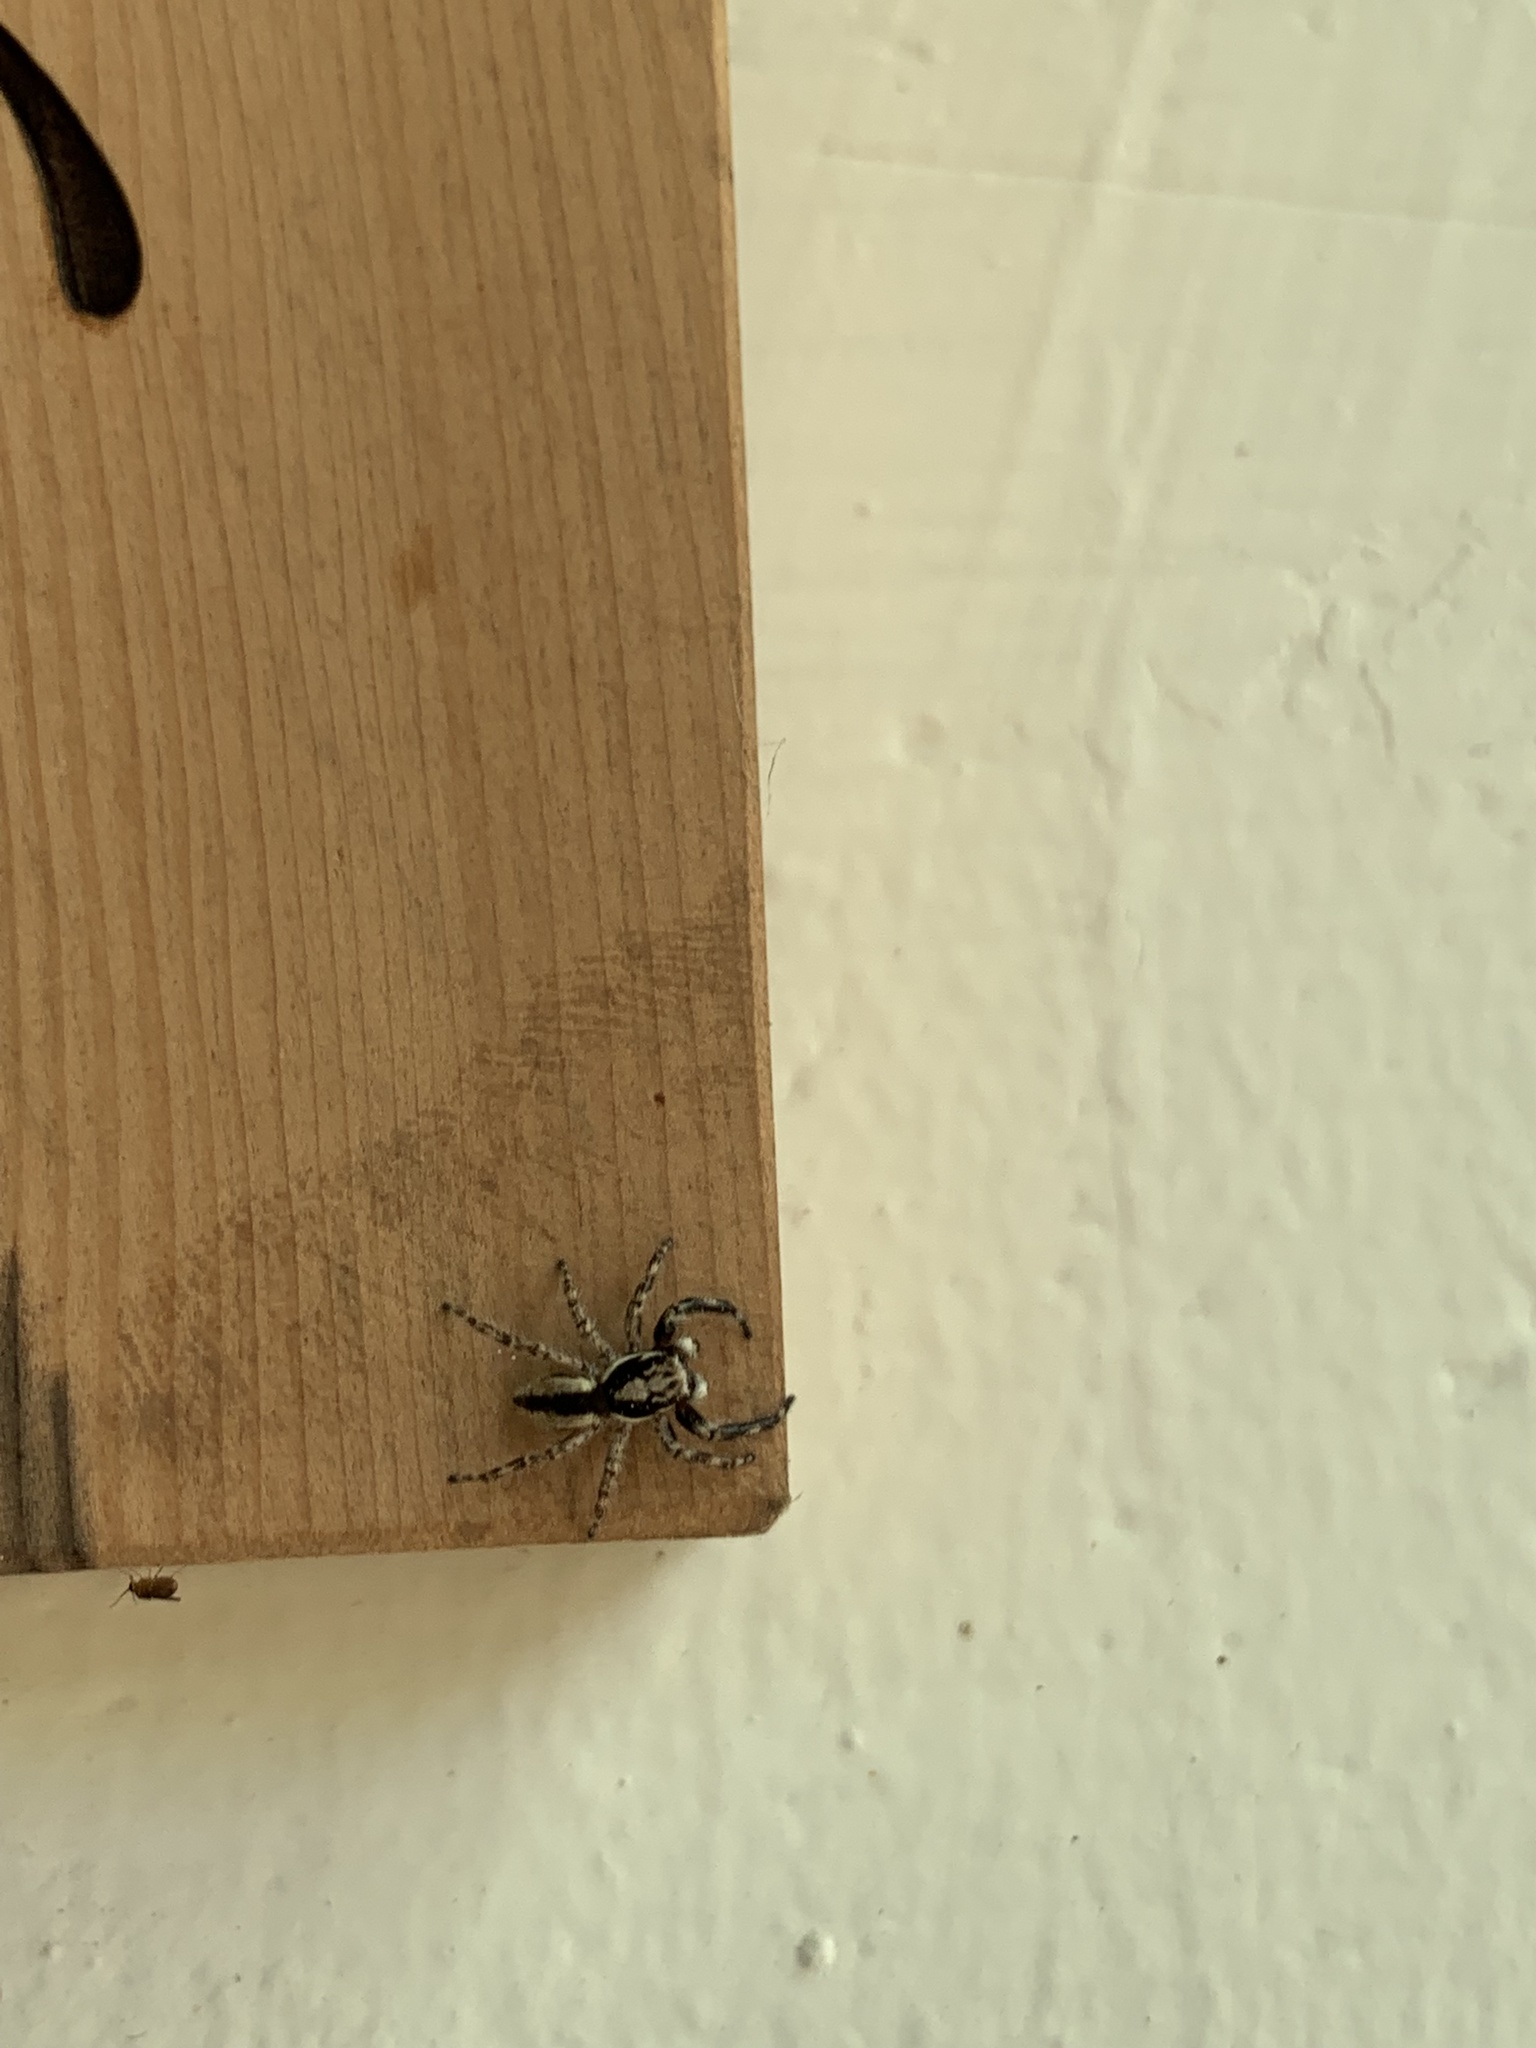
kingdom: Animalia
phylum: Arthropoda
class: Arachnida
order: Araneae
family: Salticidae
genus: Menemerus
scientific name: Menemerus bivittatus
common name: Gray wall jumper
